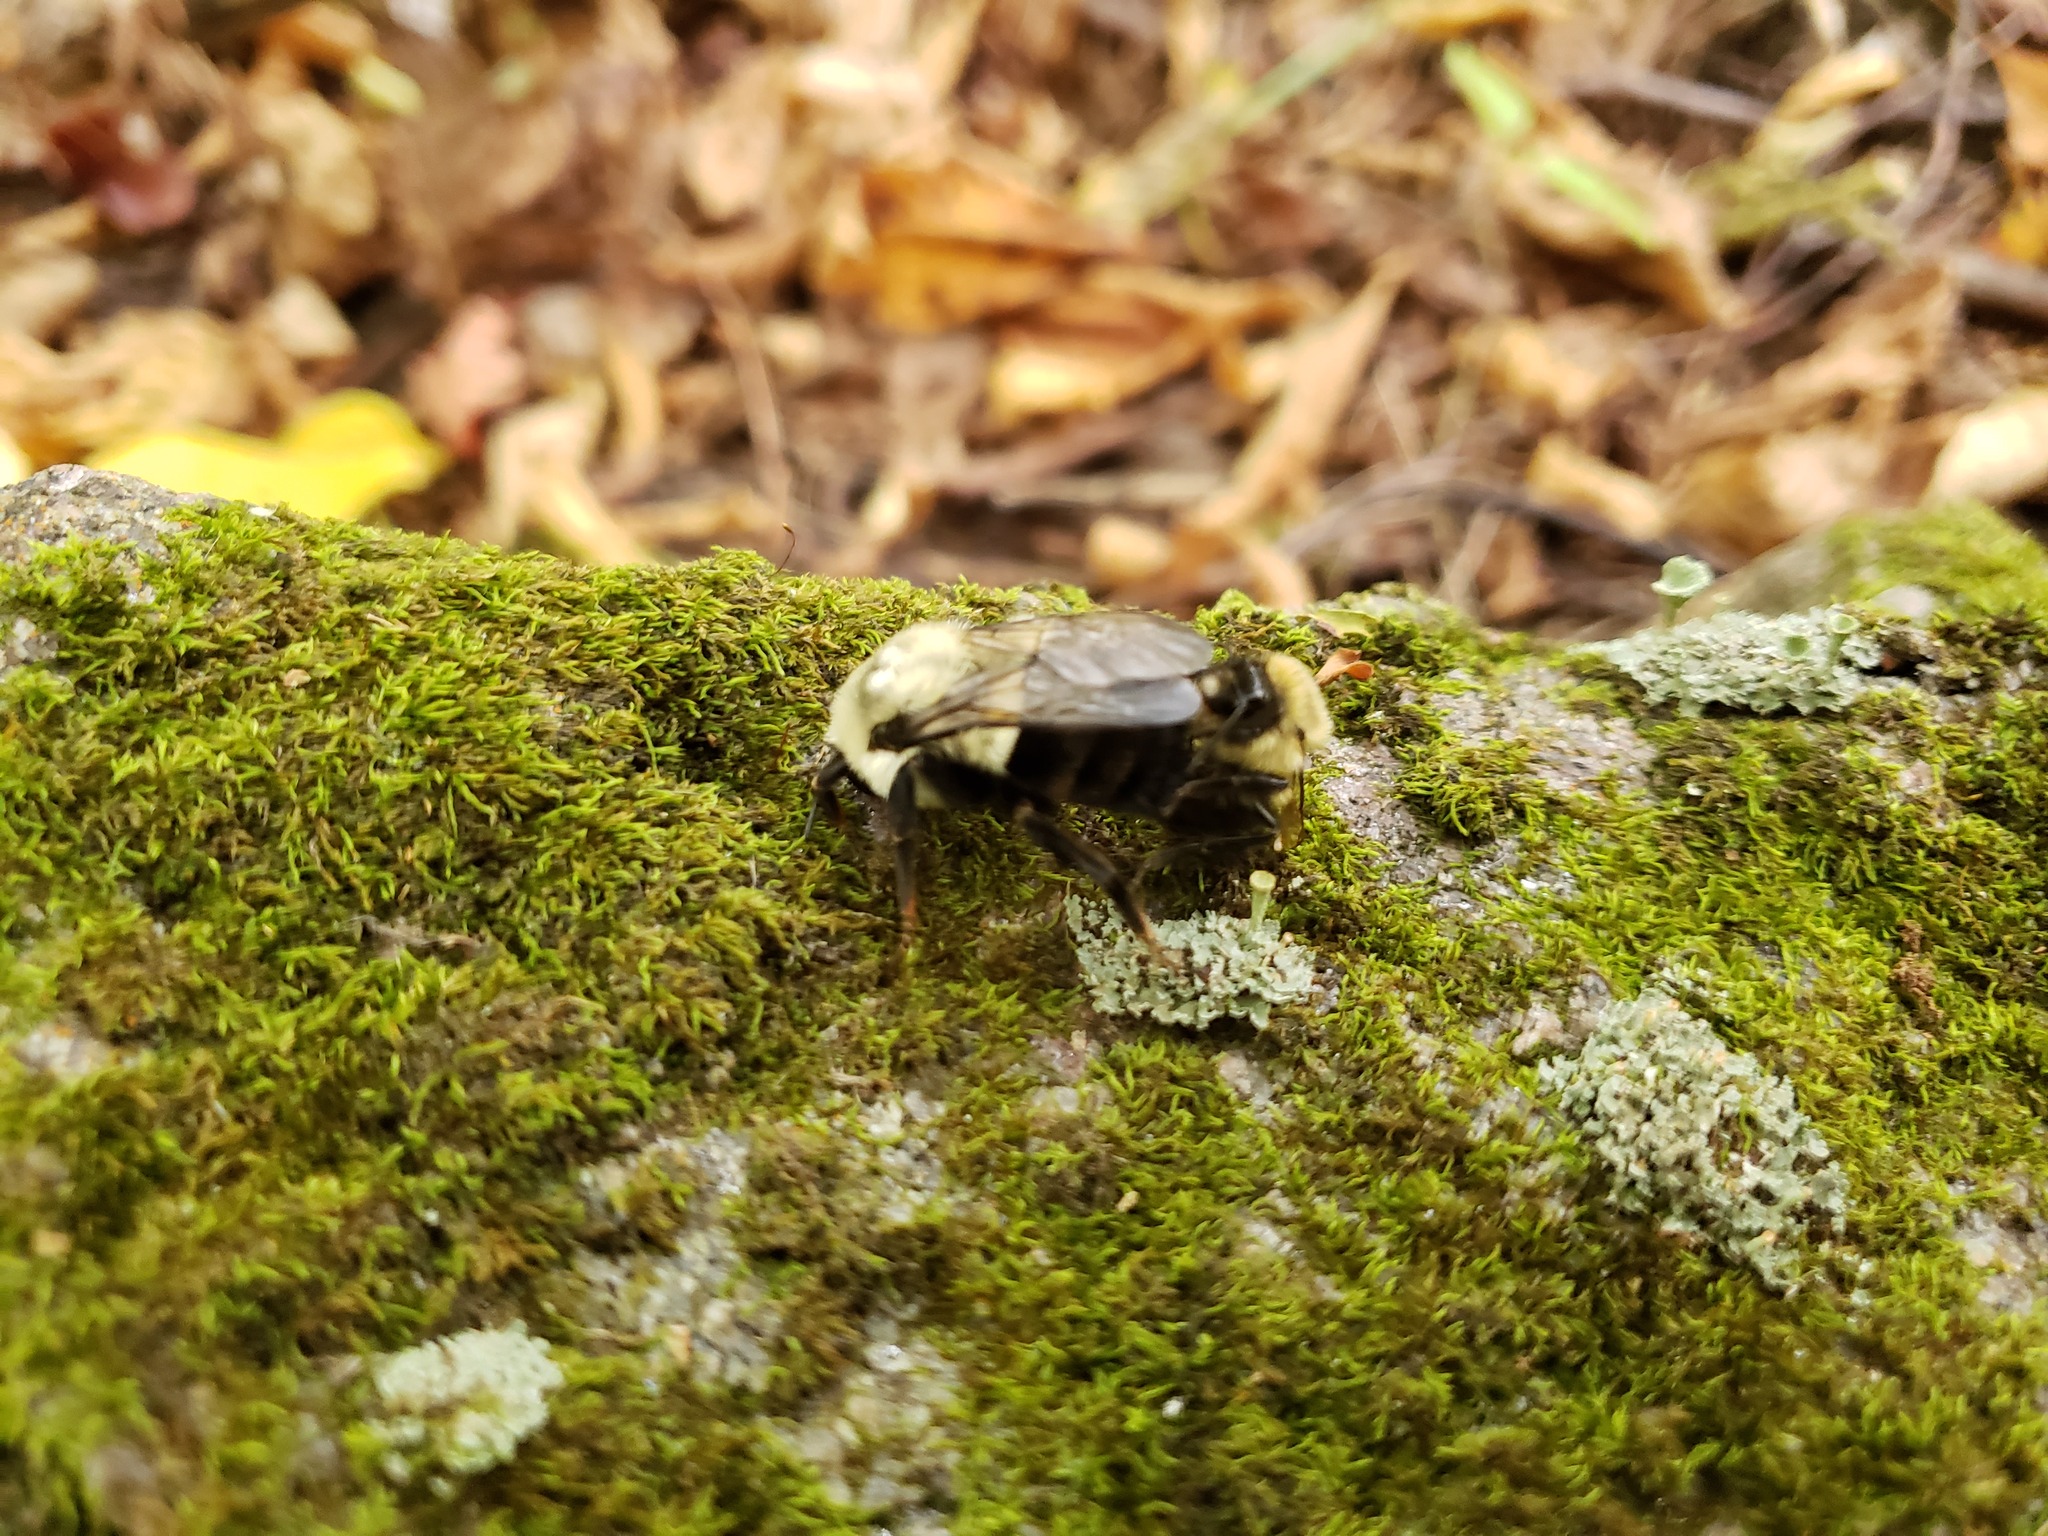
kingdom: Animalia
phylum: Arthropoda
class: Insecta
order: Hymenoptera
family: Apidae
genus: Bombus
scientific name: Bombus impatiens
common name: Common eastern bumble bee
